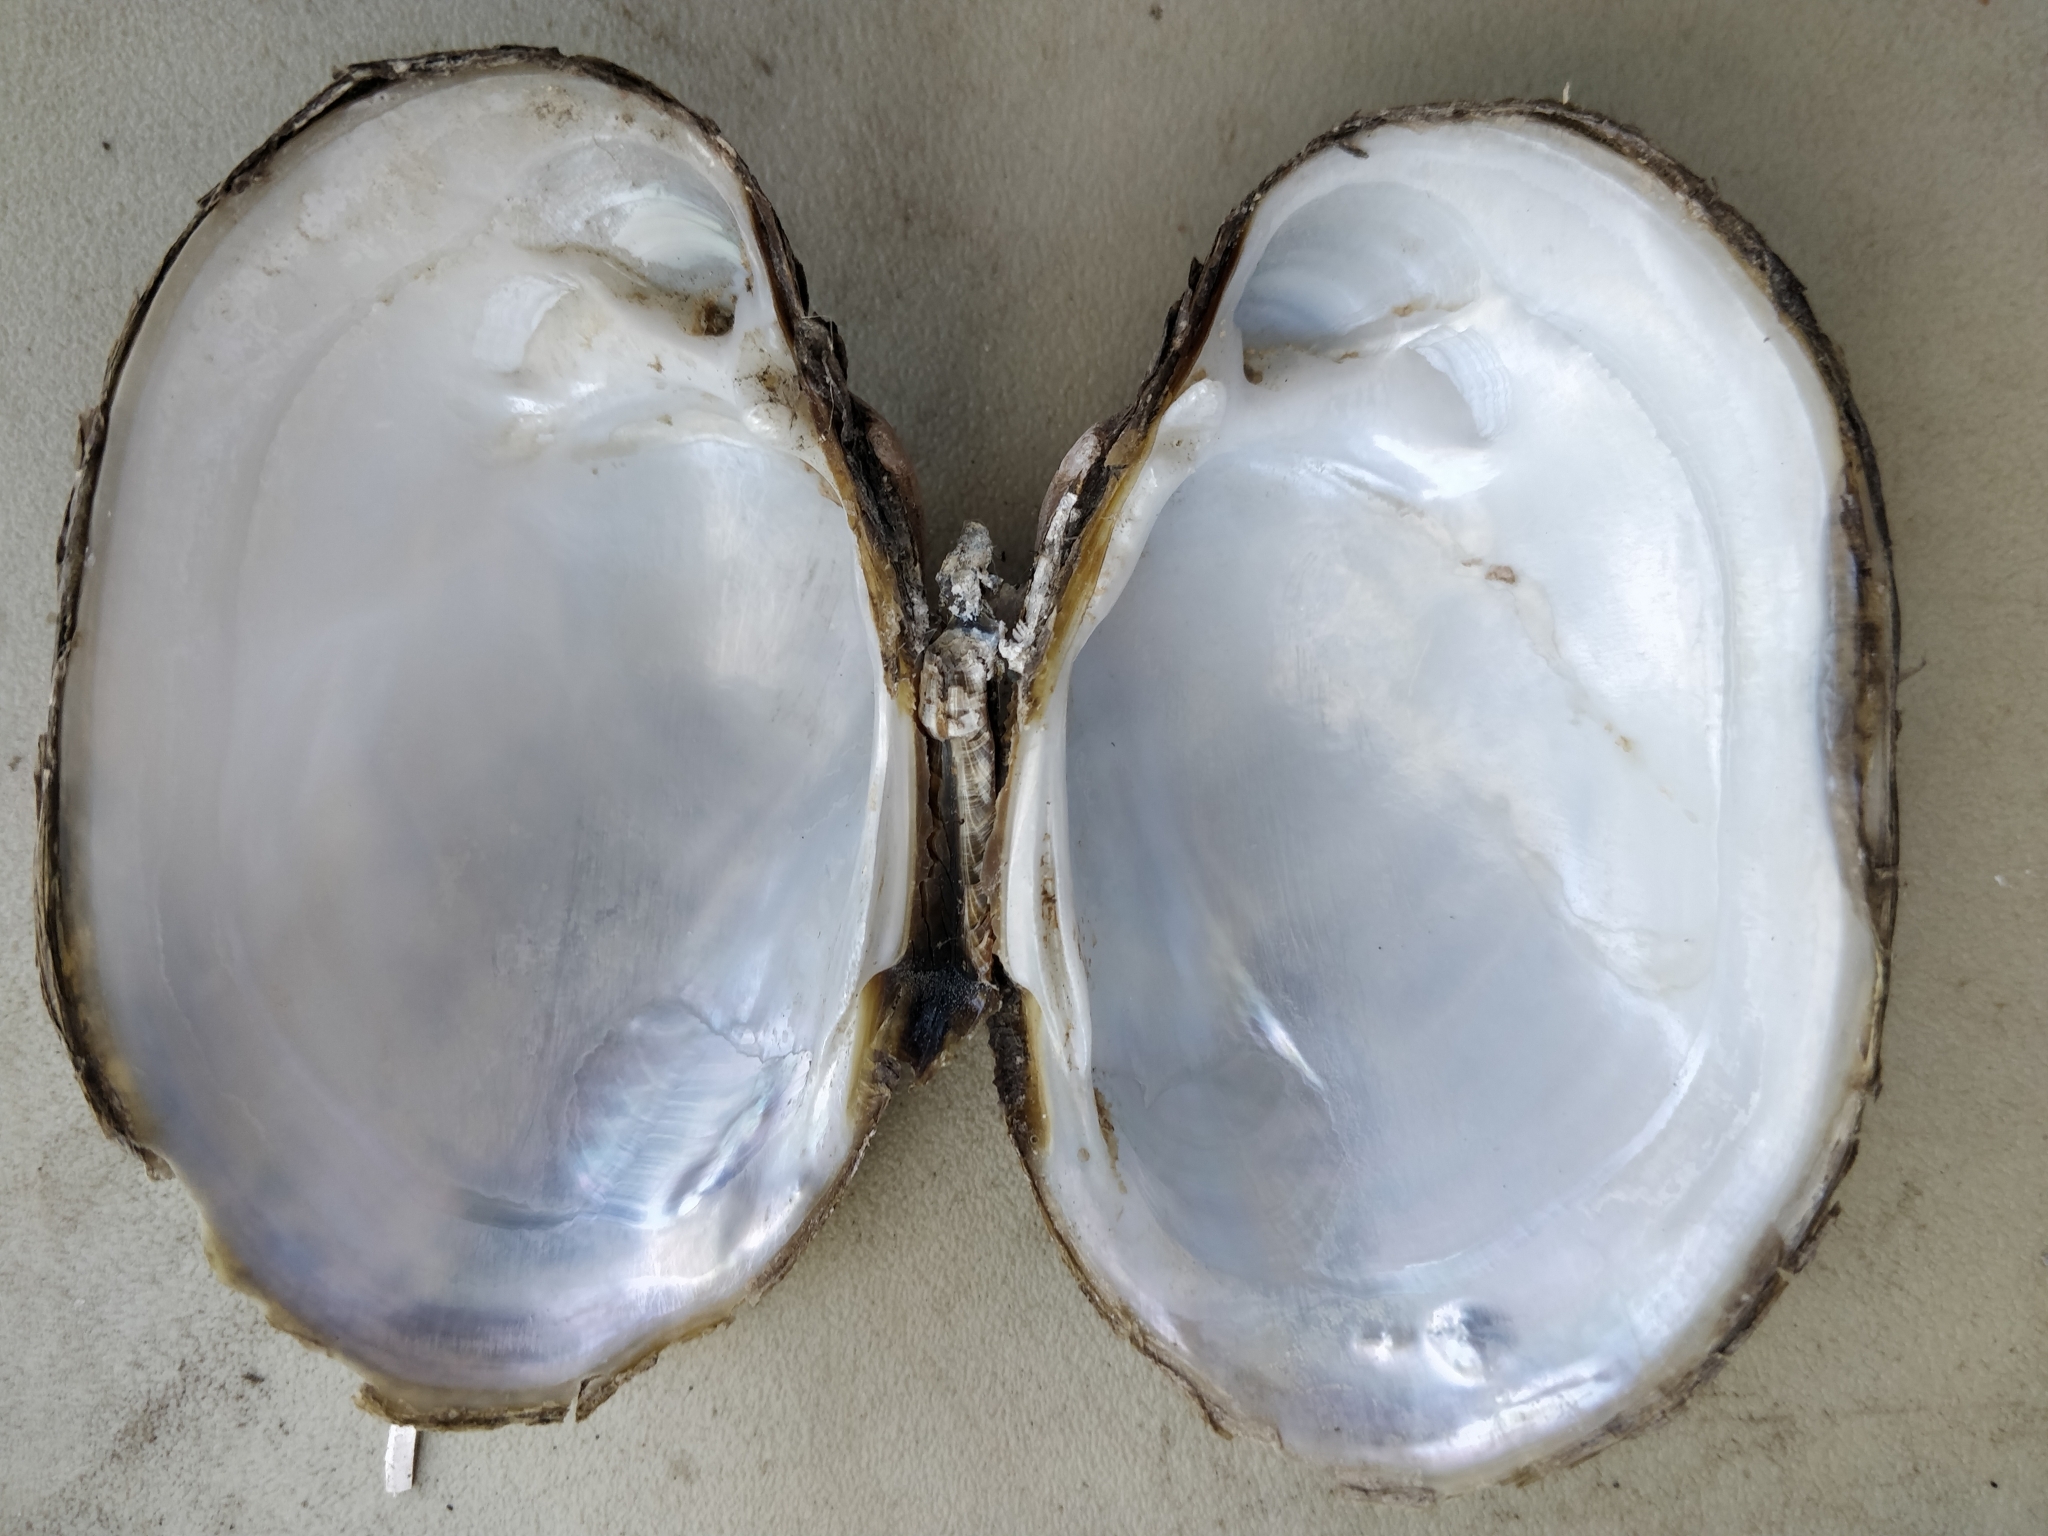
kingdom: Animalia
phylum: Mollusca
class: Bivalvia
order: Unionida
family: Unionidae
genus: Lampsilis
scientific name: Lampsilis cardium
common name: Plain pocketbook
